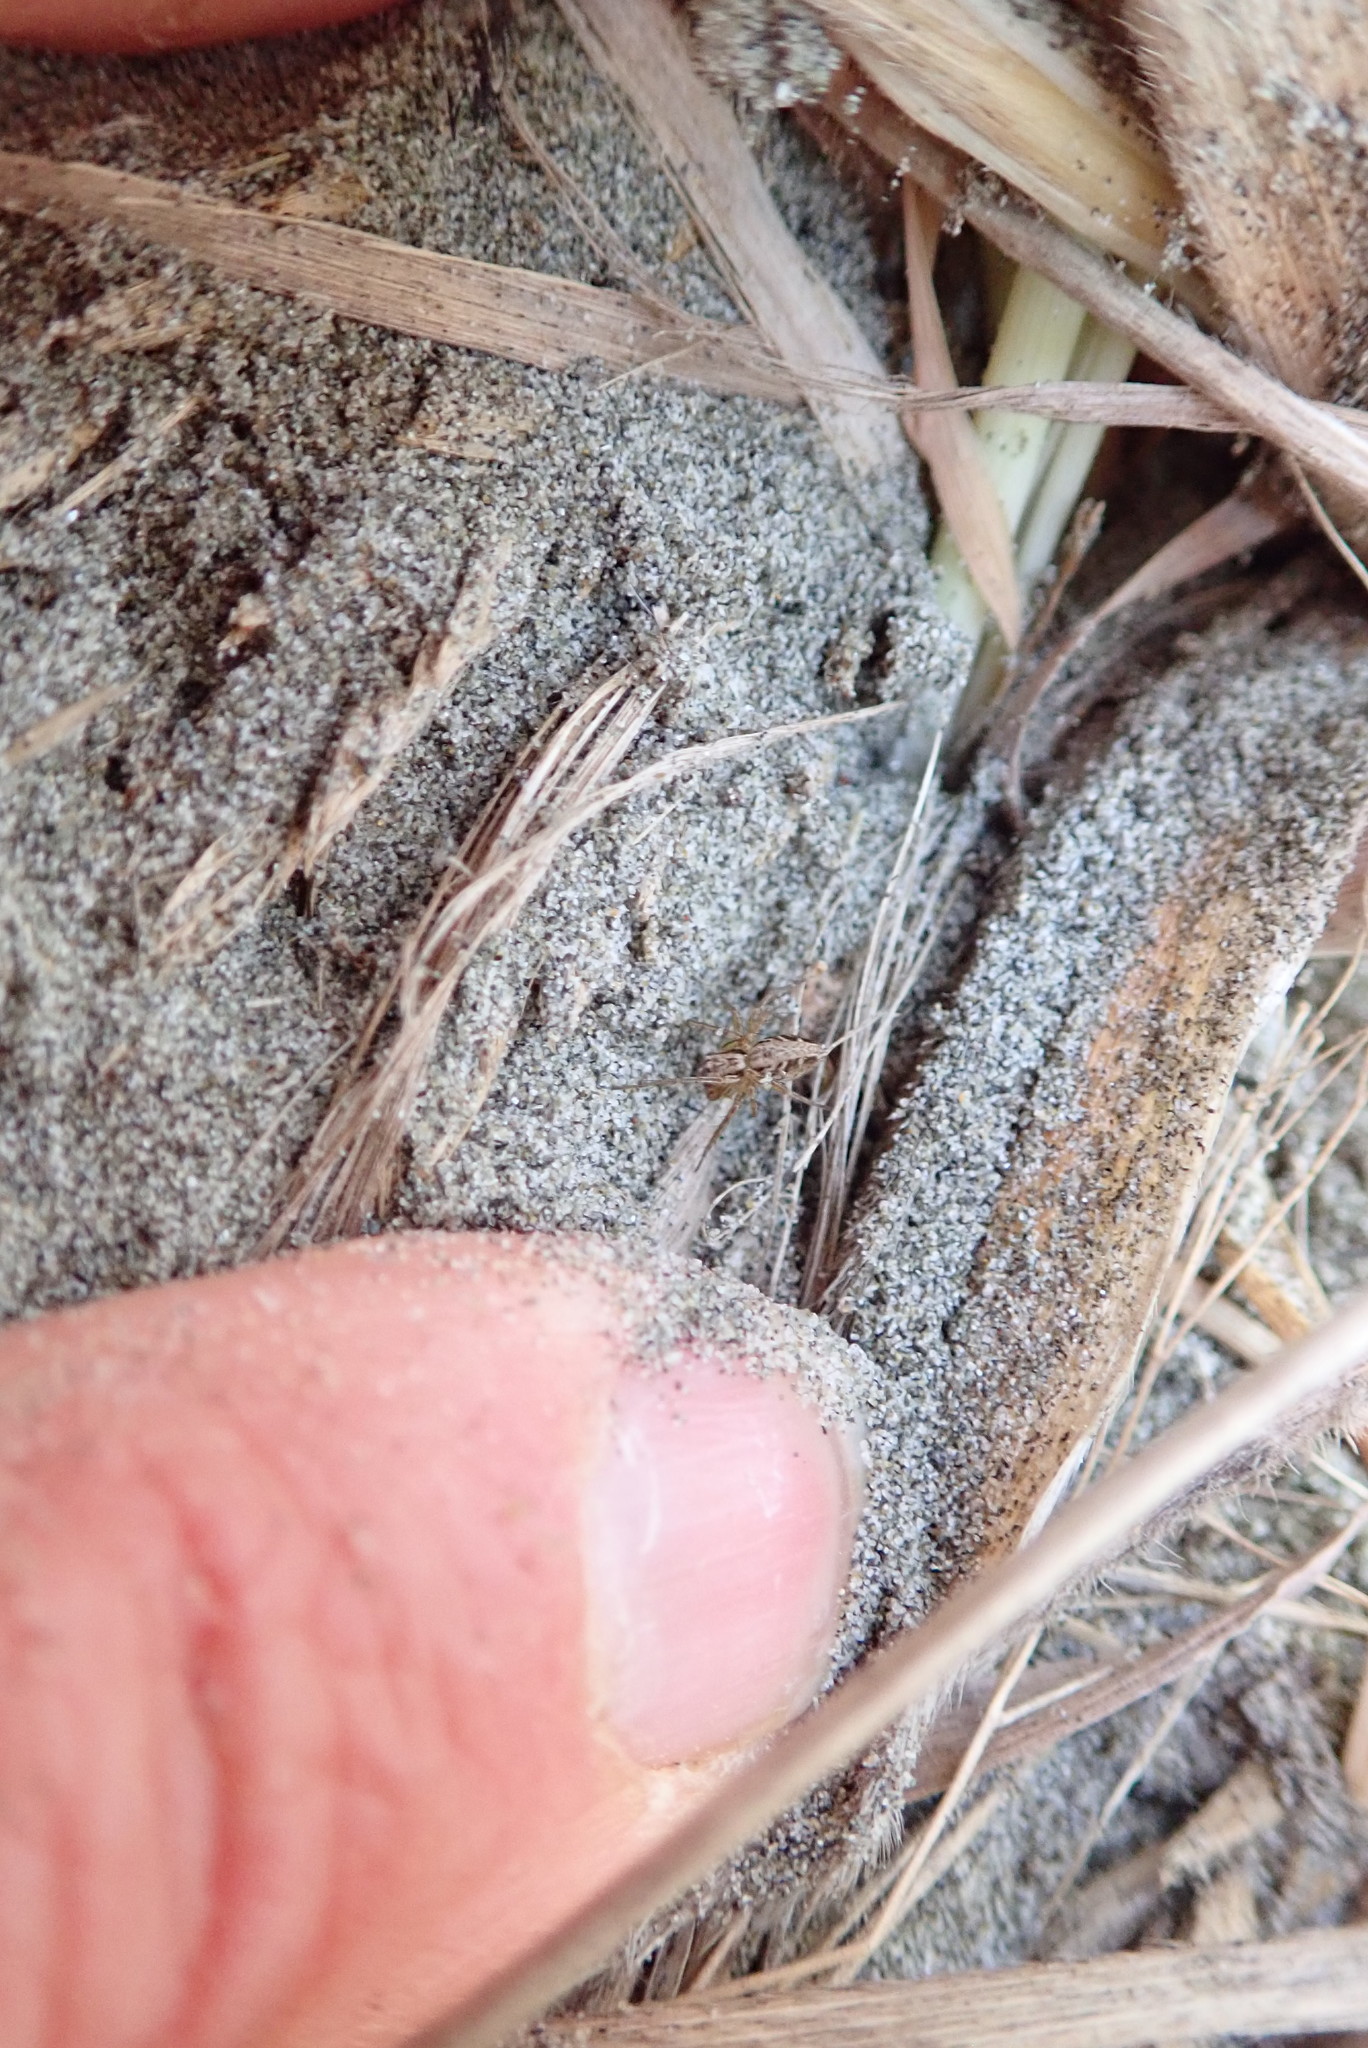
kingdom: Animalia
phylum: Arthropoda
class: Arachnida
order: Araneae
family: Oxyopidae
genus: Oxyopes
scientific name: Oxyopes gracilipes
